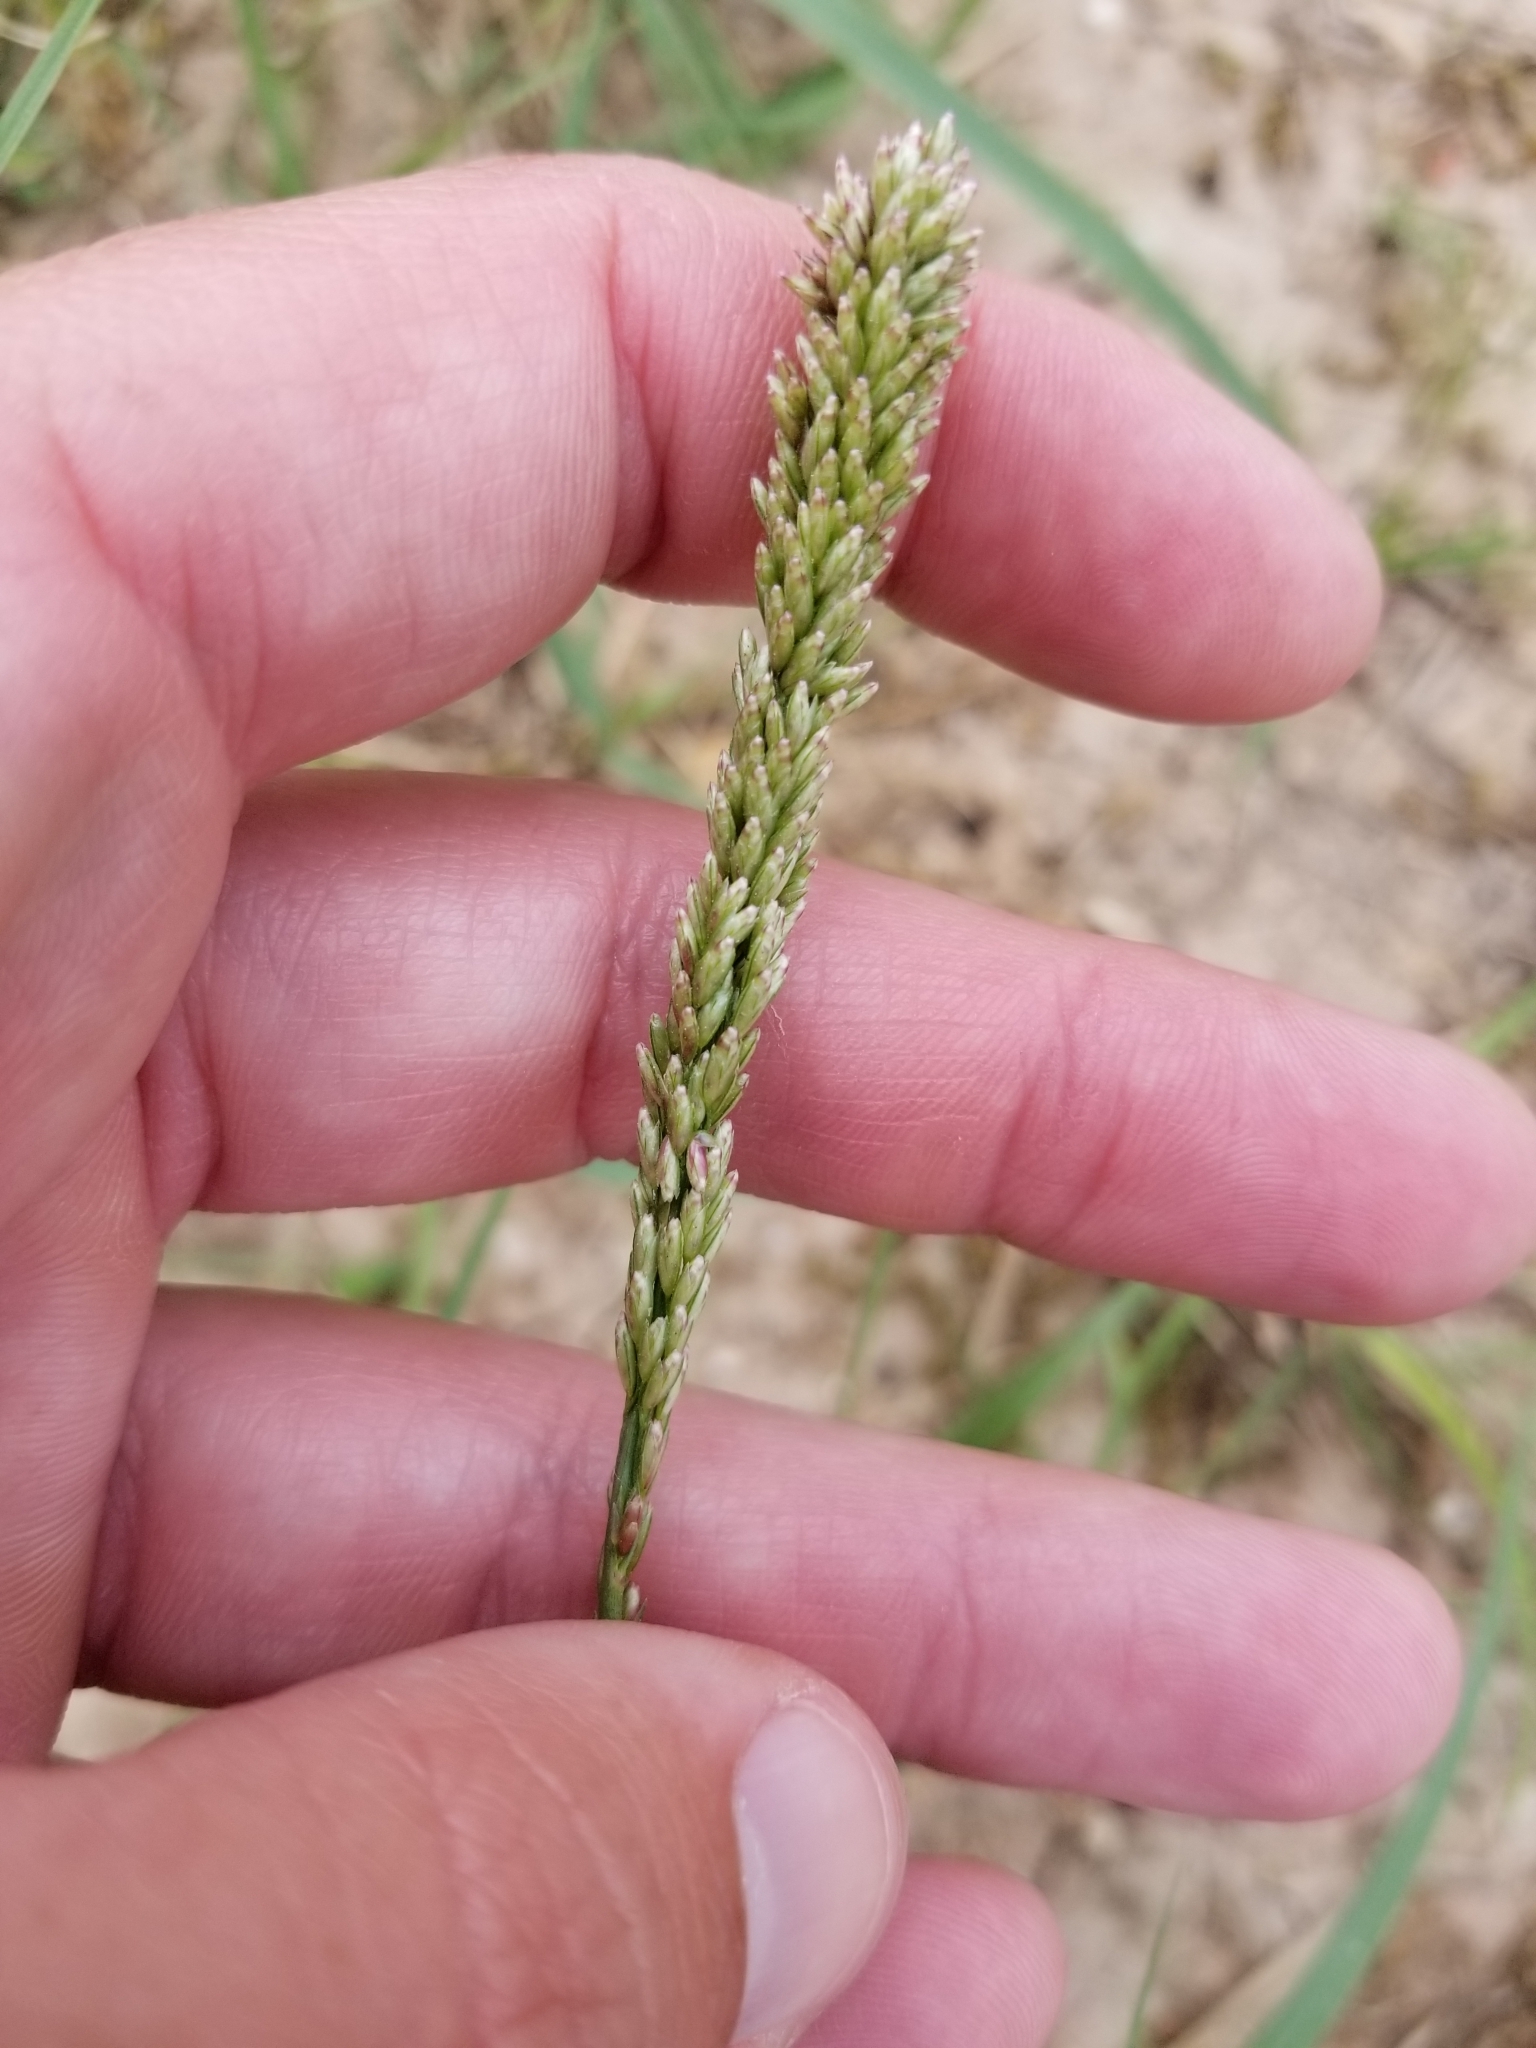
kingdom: Plantae
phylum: Tracheophyta
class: Liliopsida
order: Poales
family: Poaceae
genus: Tridens
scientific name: Tridens albescens
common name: White tridens
